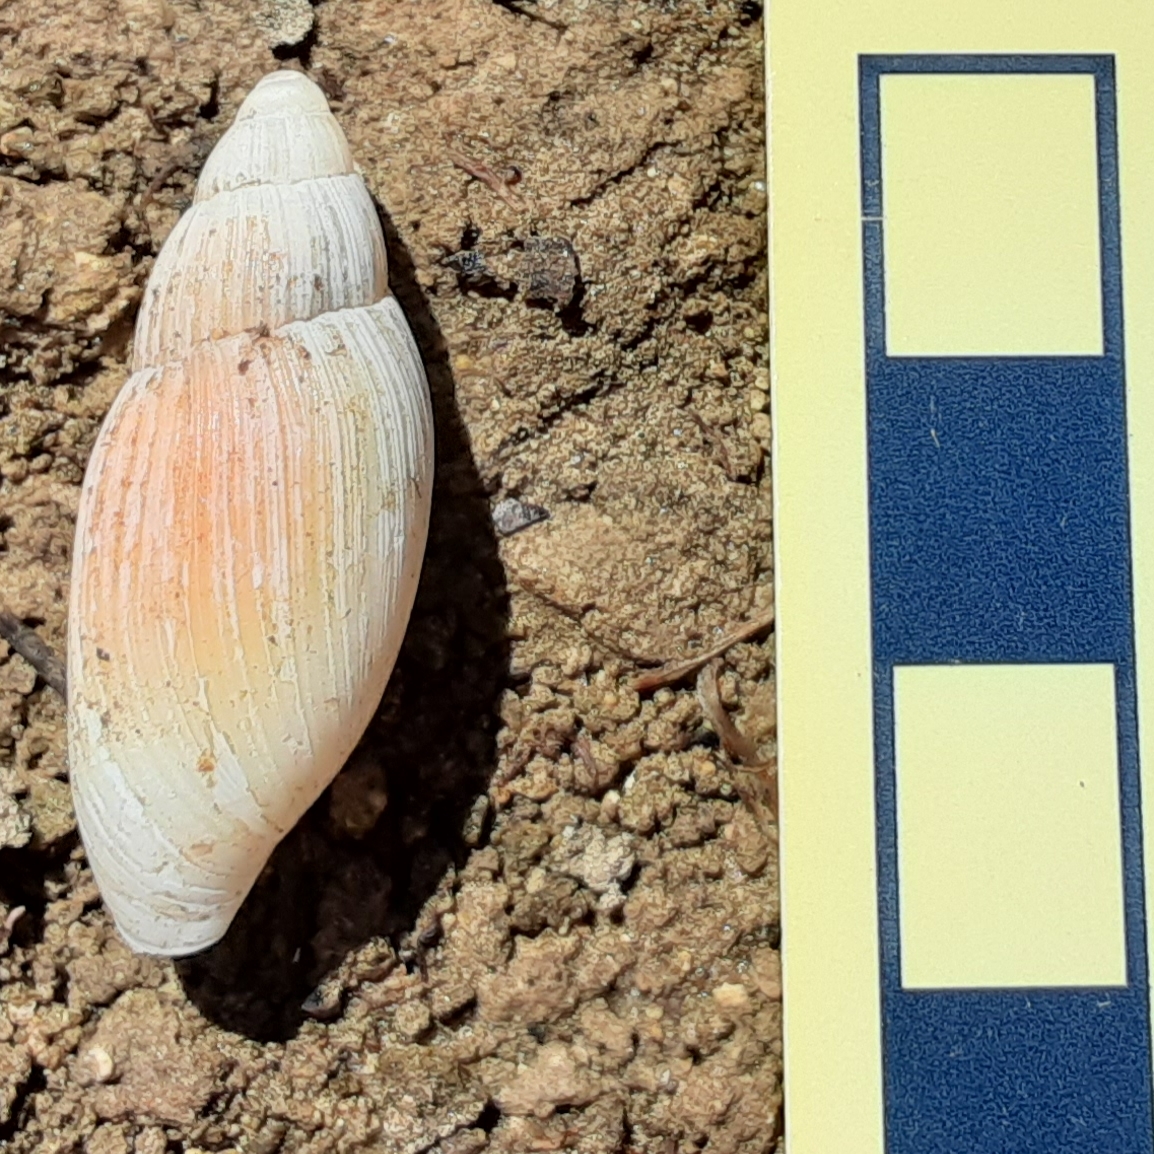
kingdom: Animalia
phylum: Mollusca
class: Gastropoda
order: Stylommatophora
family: Spiraxidae
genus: Euglandina
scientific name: Euglandina rosea
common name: Rosy wolfsnail
